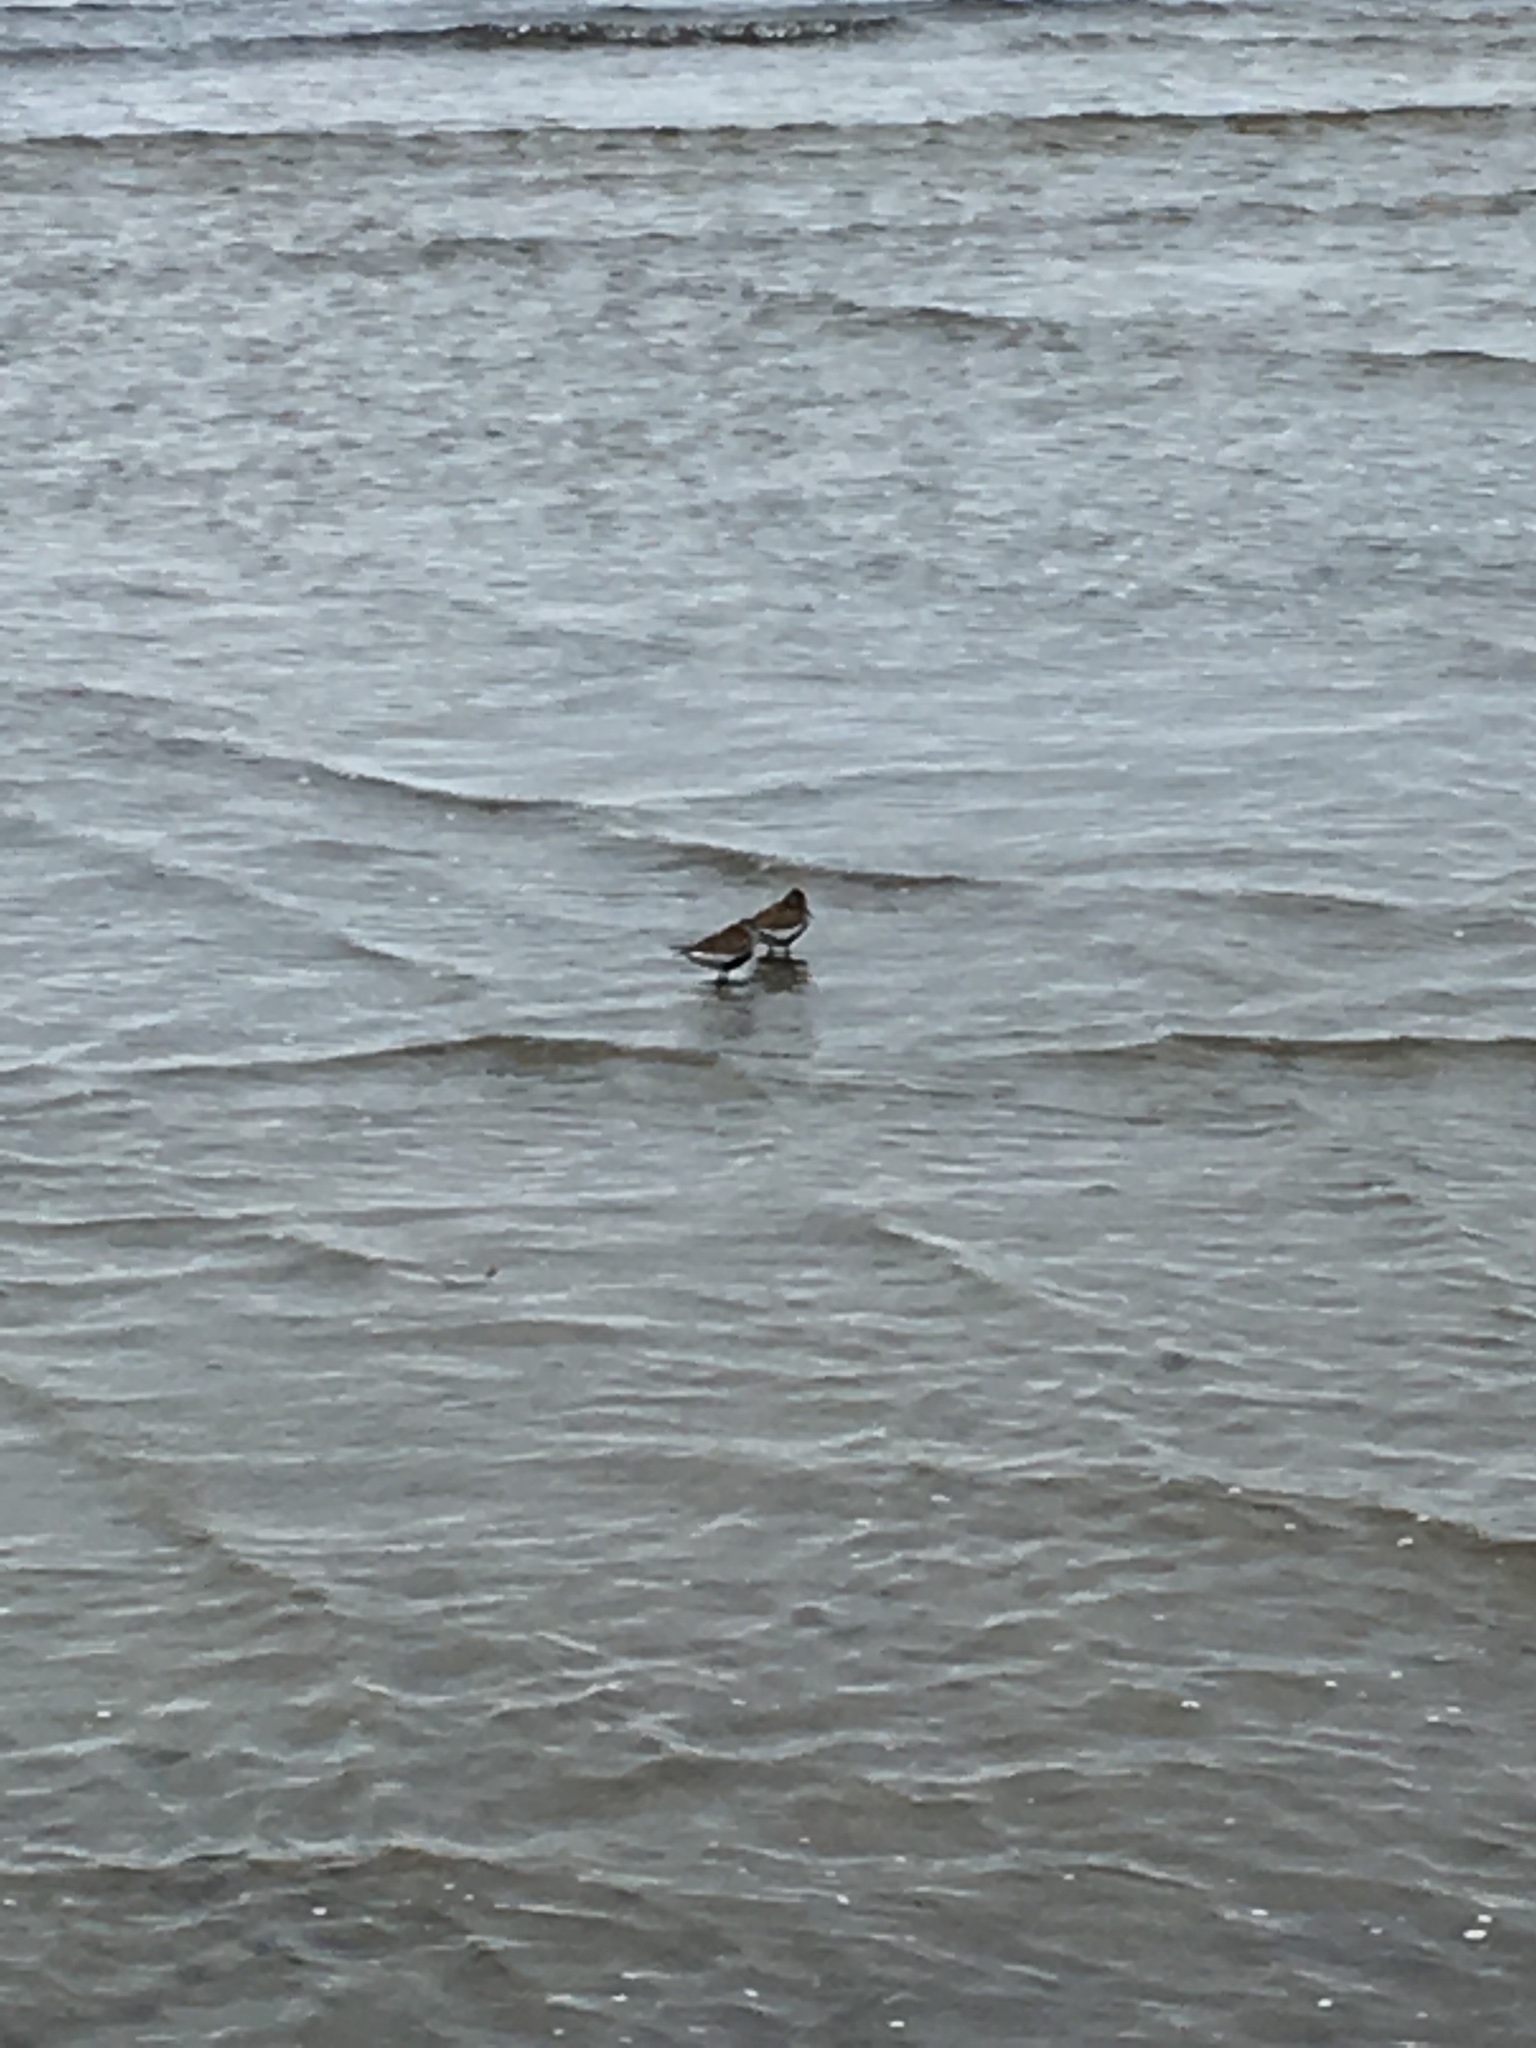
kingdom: Animalia
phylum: Chordata
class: Aves
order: Charadriiformes
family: Scolopacidae
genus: Calidris
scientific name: Calidris alpina
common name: Dunlin
